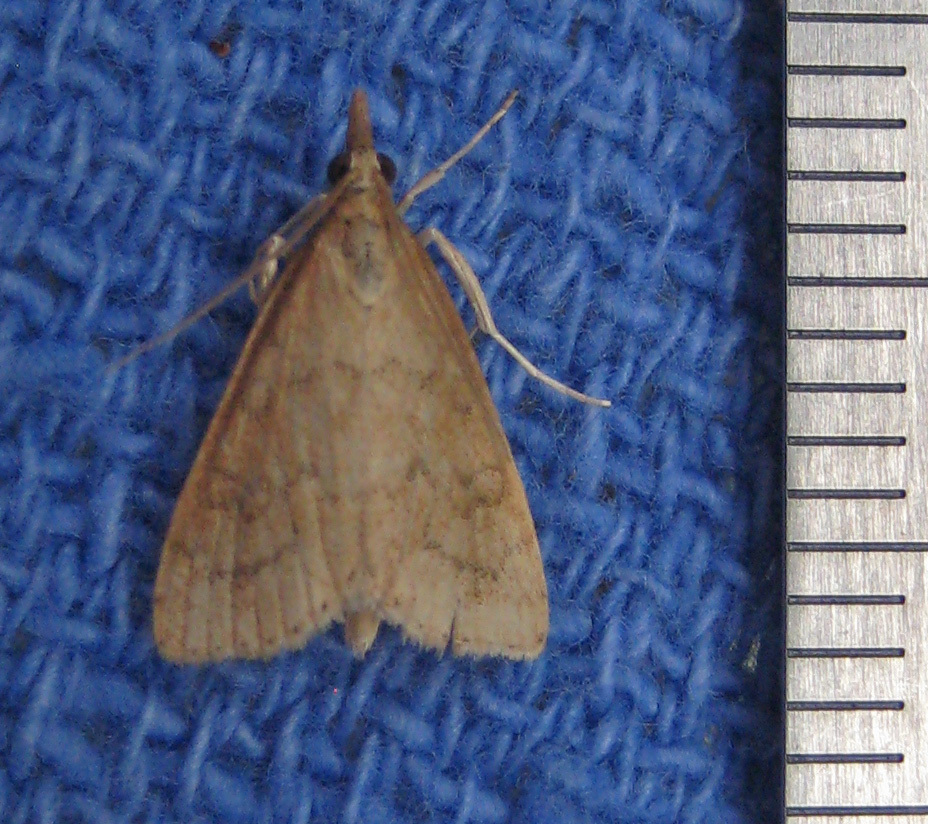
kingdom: Animalia
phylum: Arthropoda
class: Insecta
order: Lepidoptera
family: Crambidae
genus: Udea
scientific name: Udea rubigalis
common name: Celery leaftier moth
